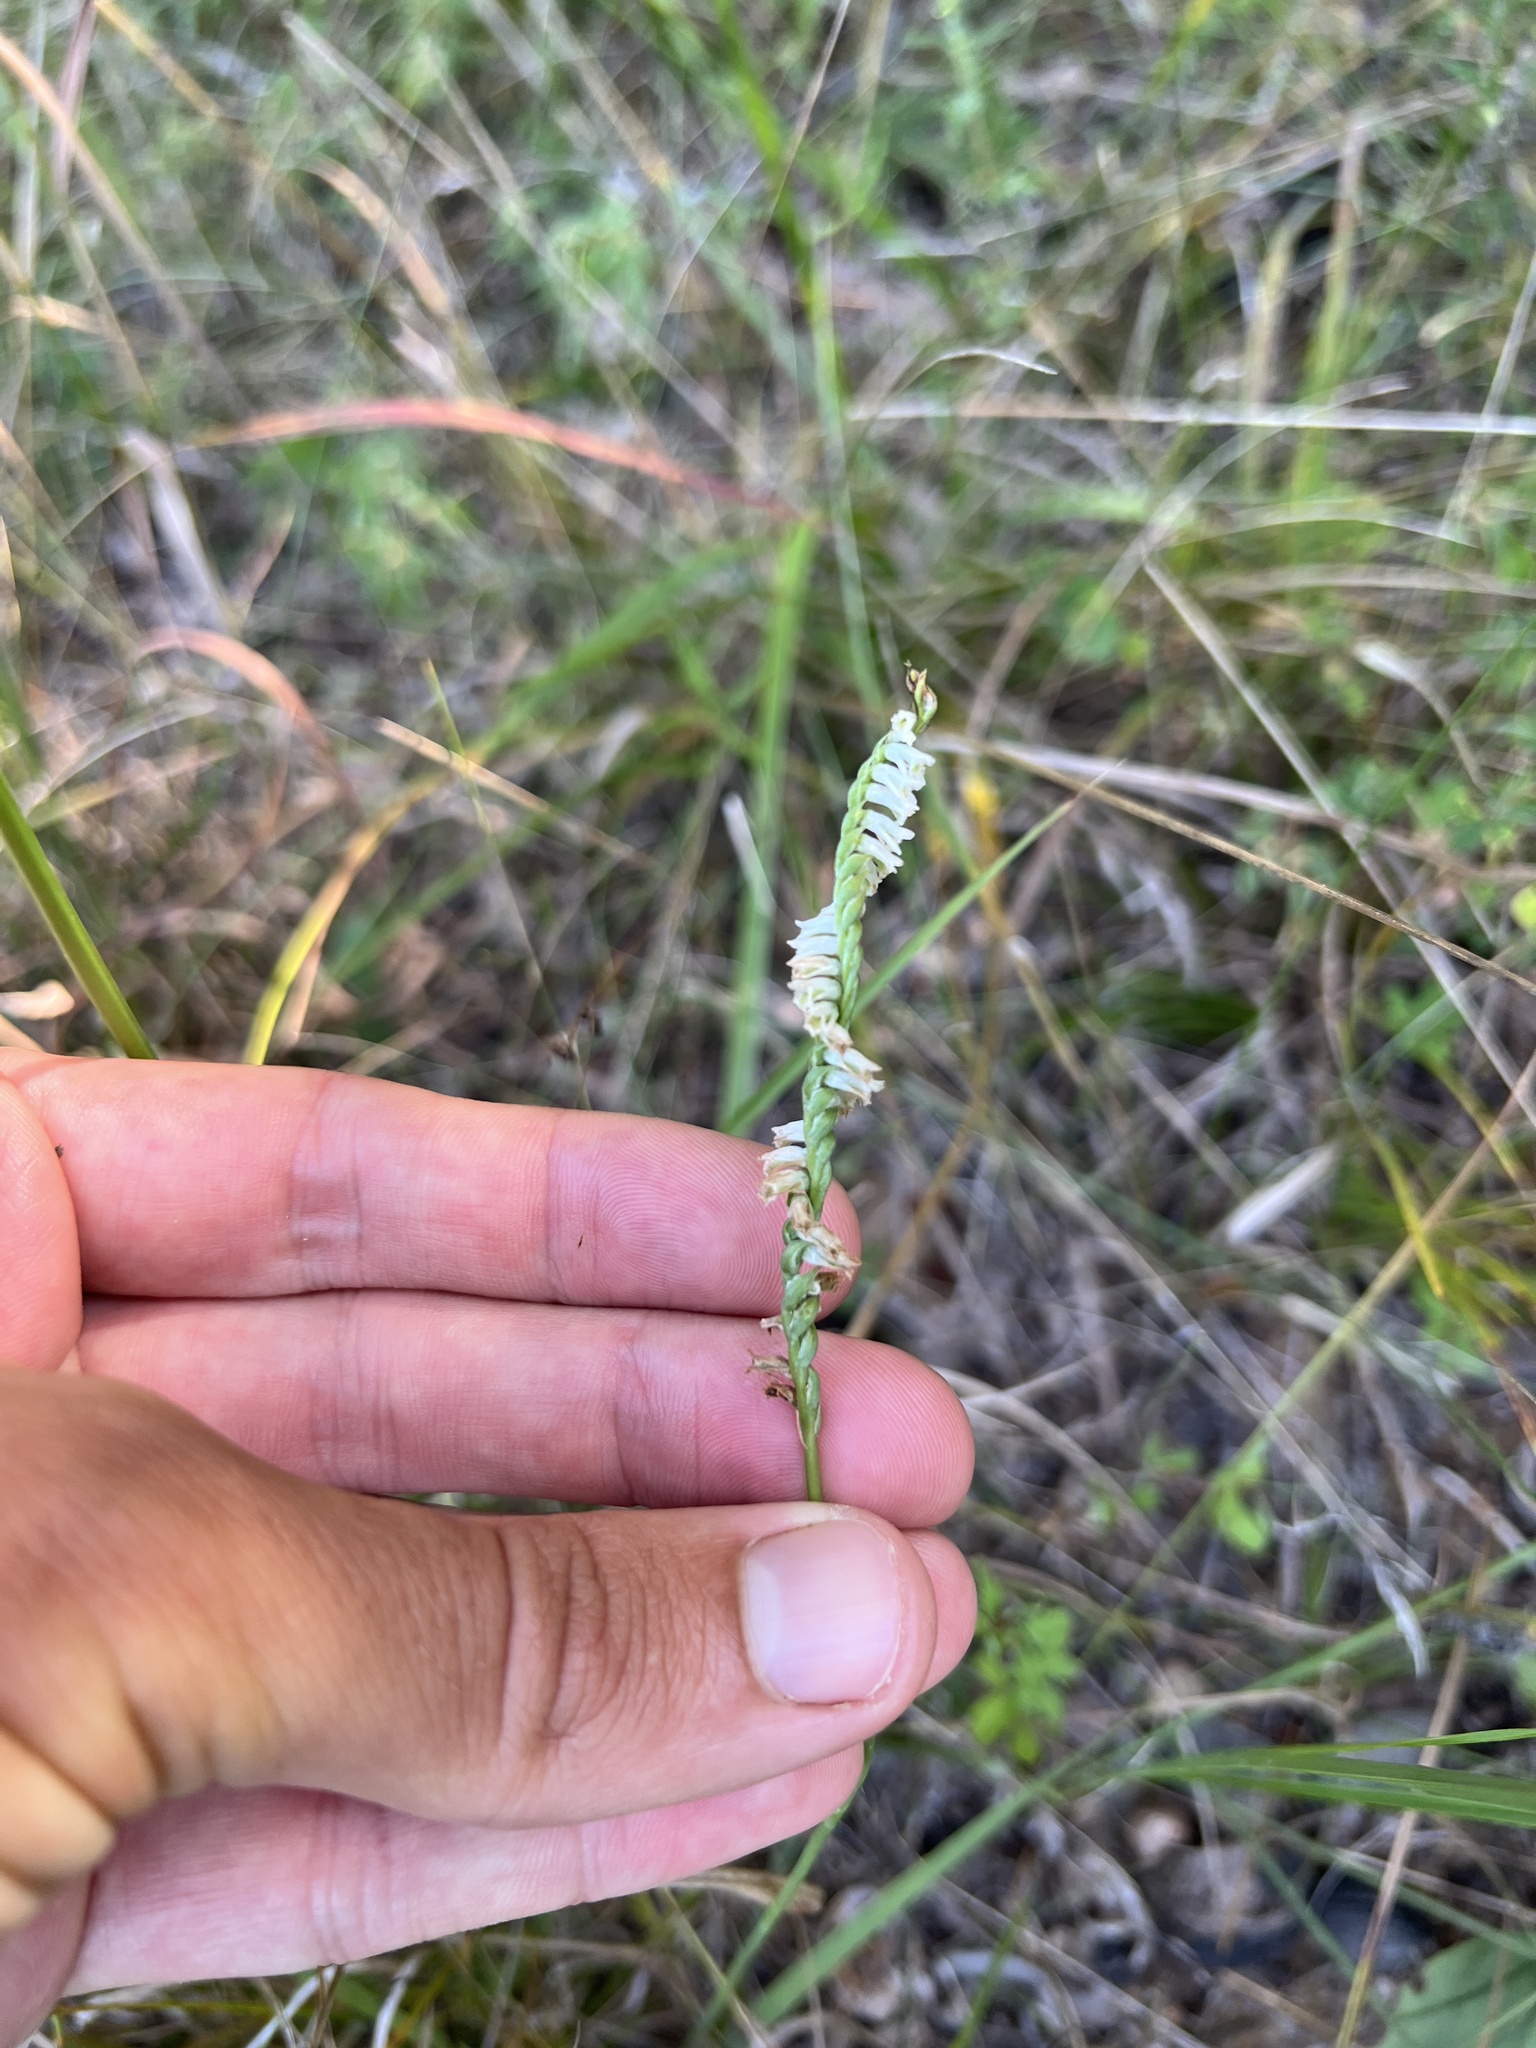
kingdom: Plantae
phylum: Tracheophyta
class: Liliopsida
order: Asparagales
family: Orchidaceae
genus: Spiranthes
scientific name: Spiranthes lacera
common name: Northern slender ladies'-tresses
